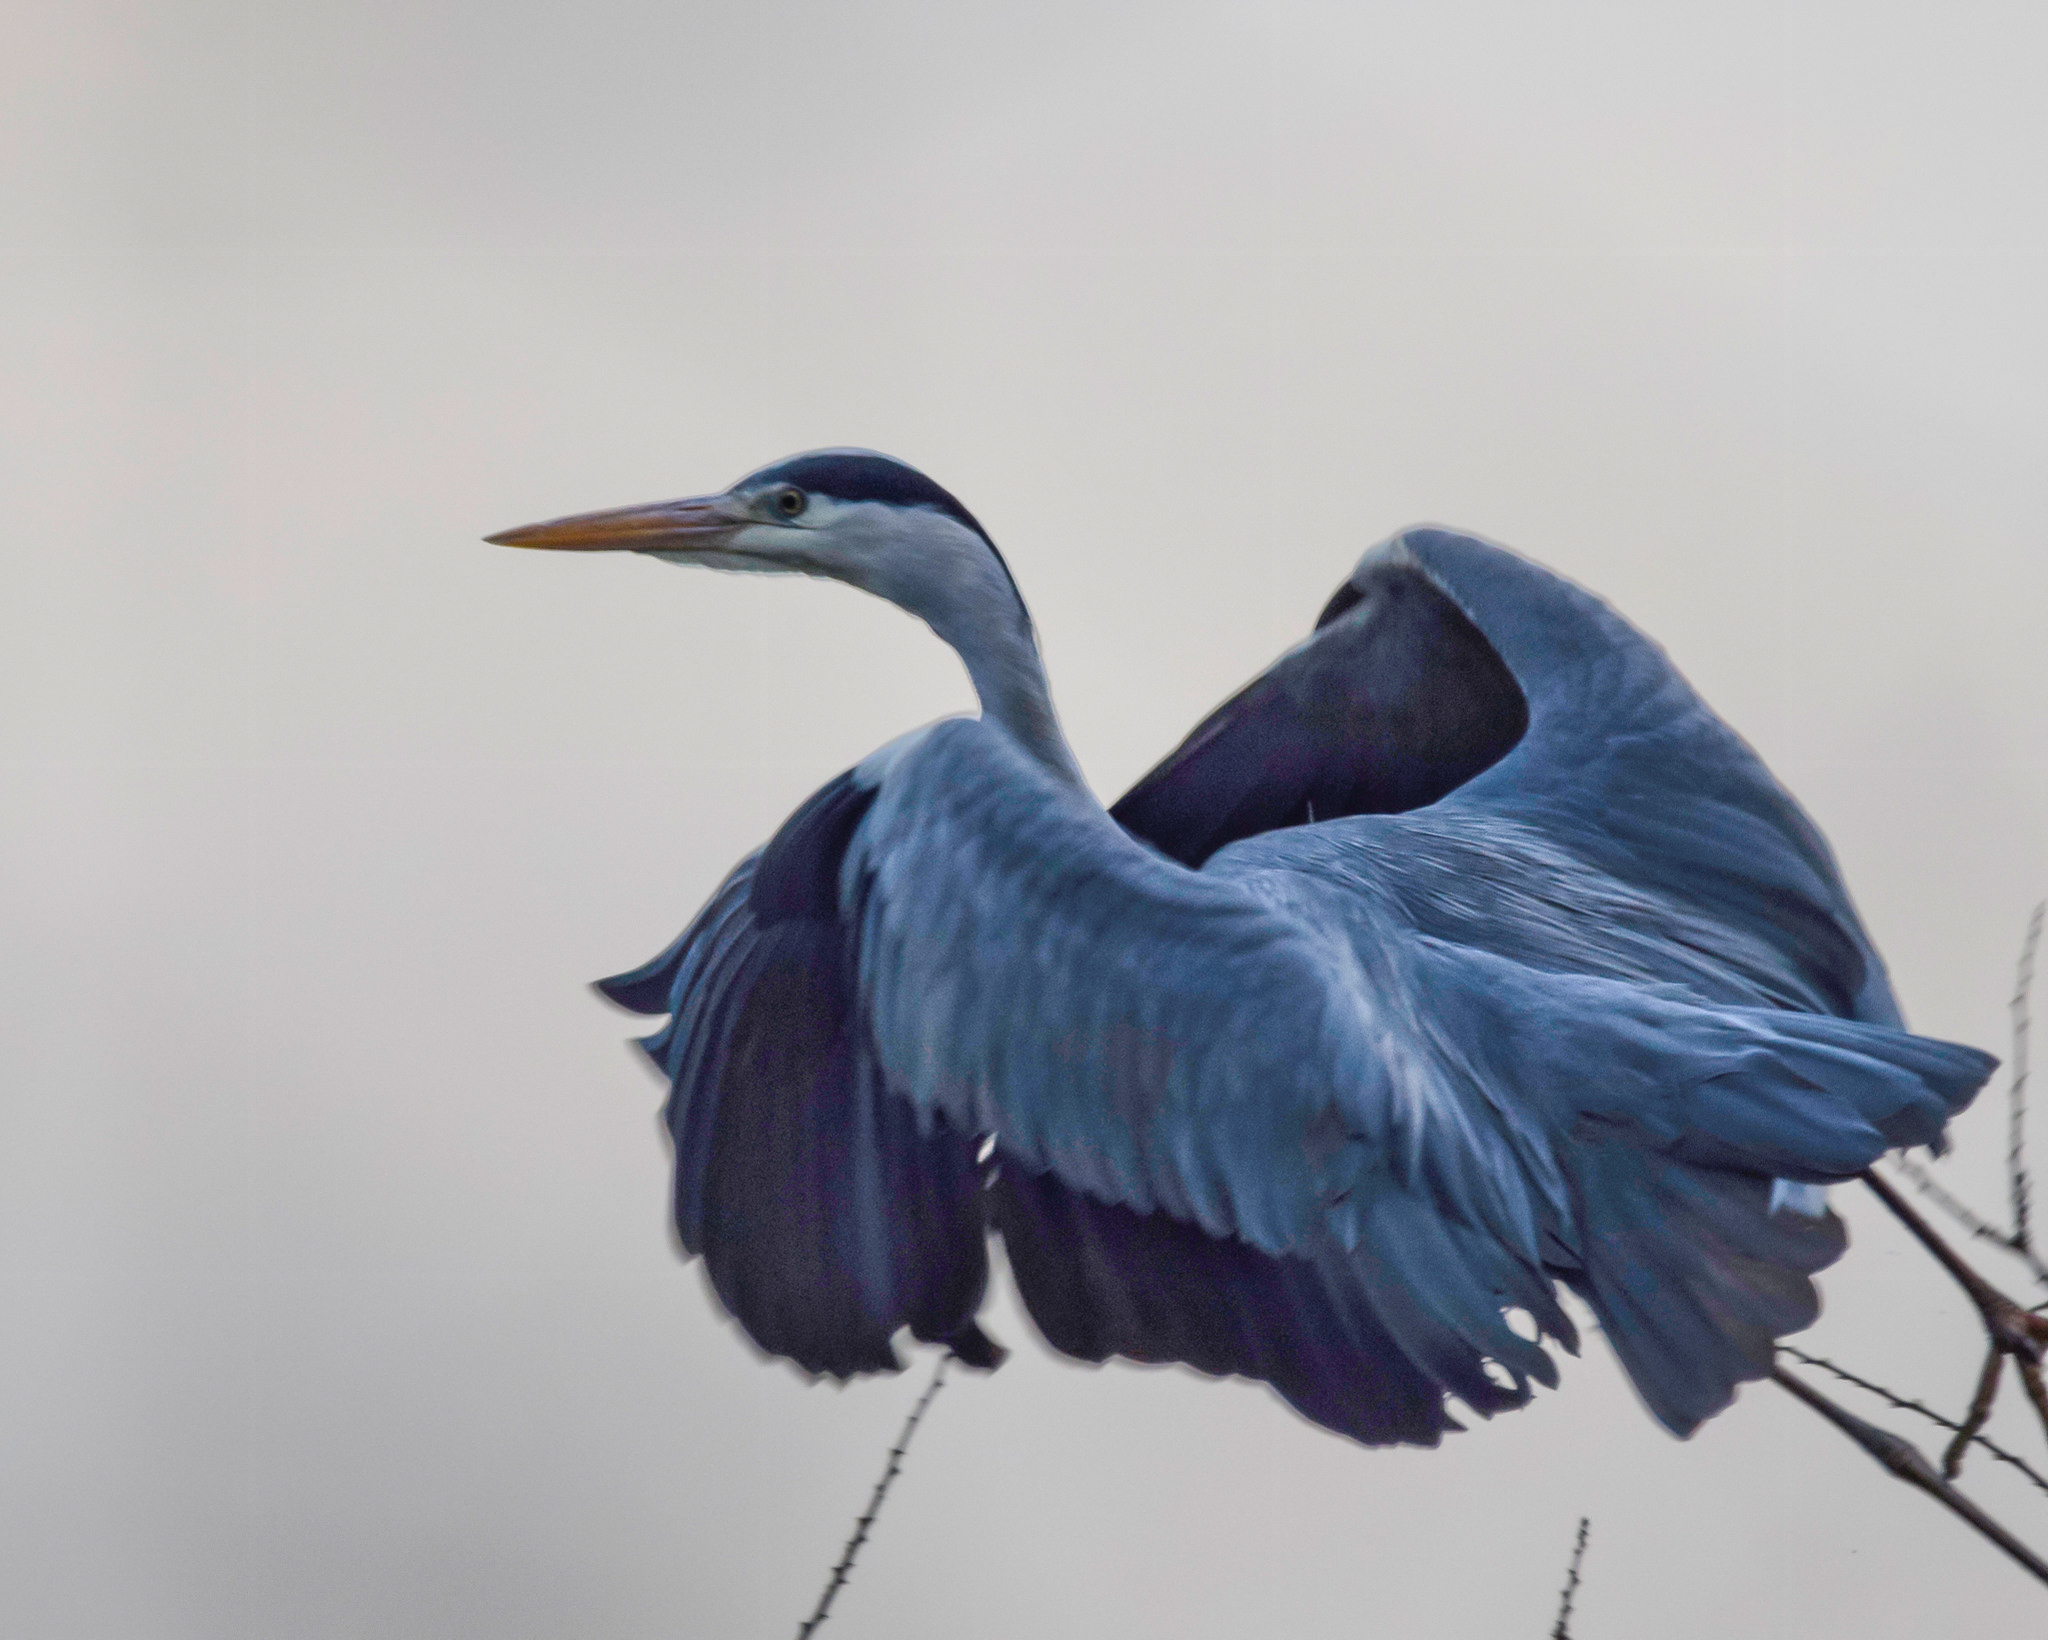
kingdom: Animalia
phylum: Chordata
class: Aves
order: Pelecaniformes
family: Ardeidae
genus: Ardea
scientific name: Ardea cinerea
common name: Grey heron
